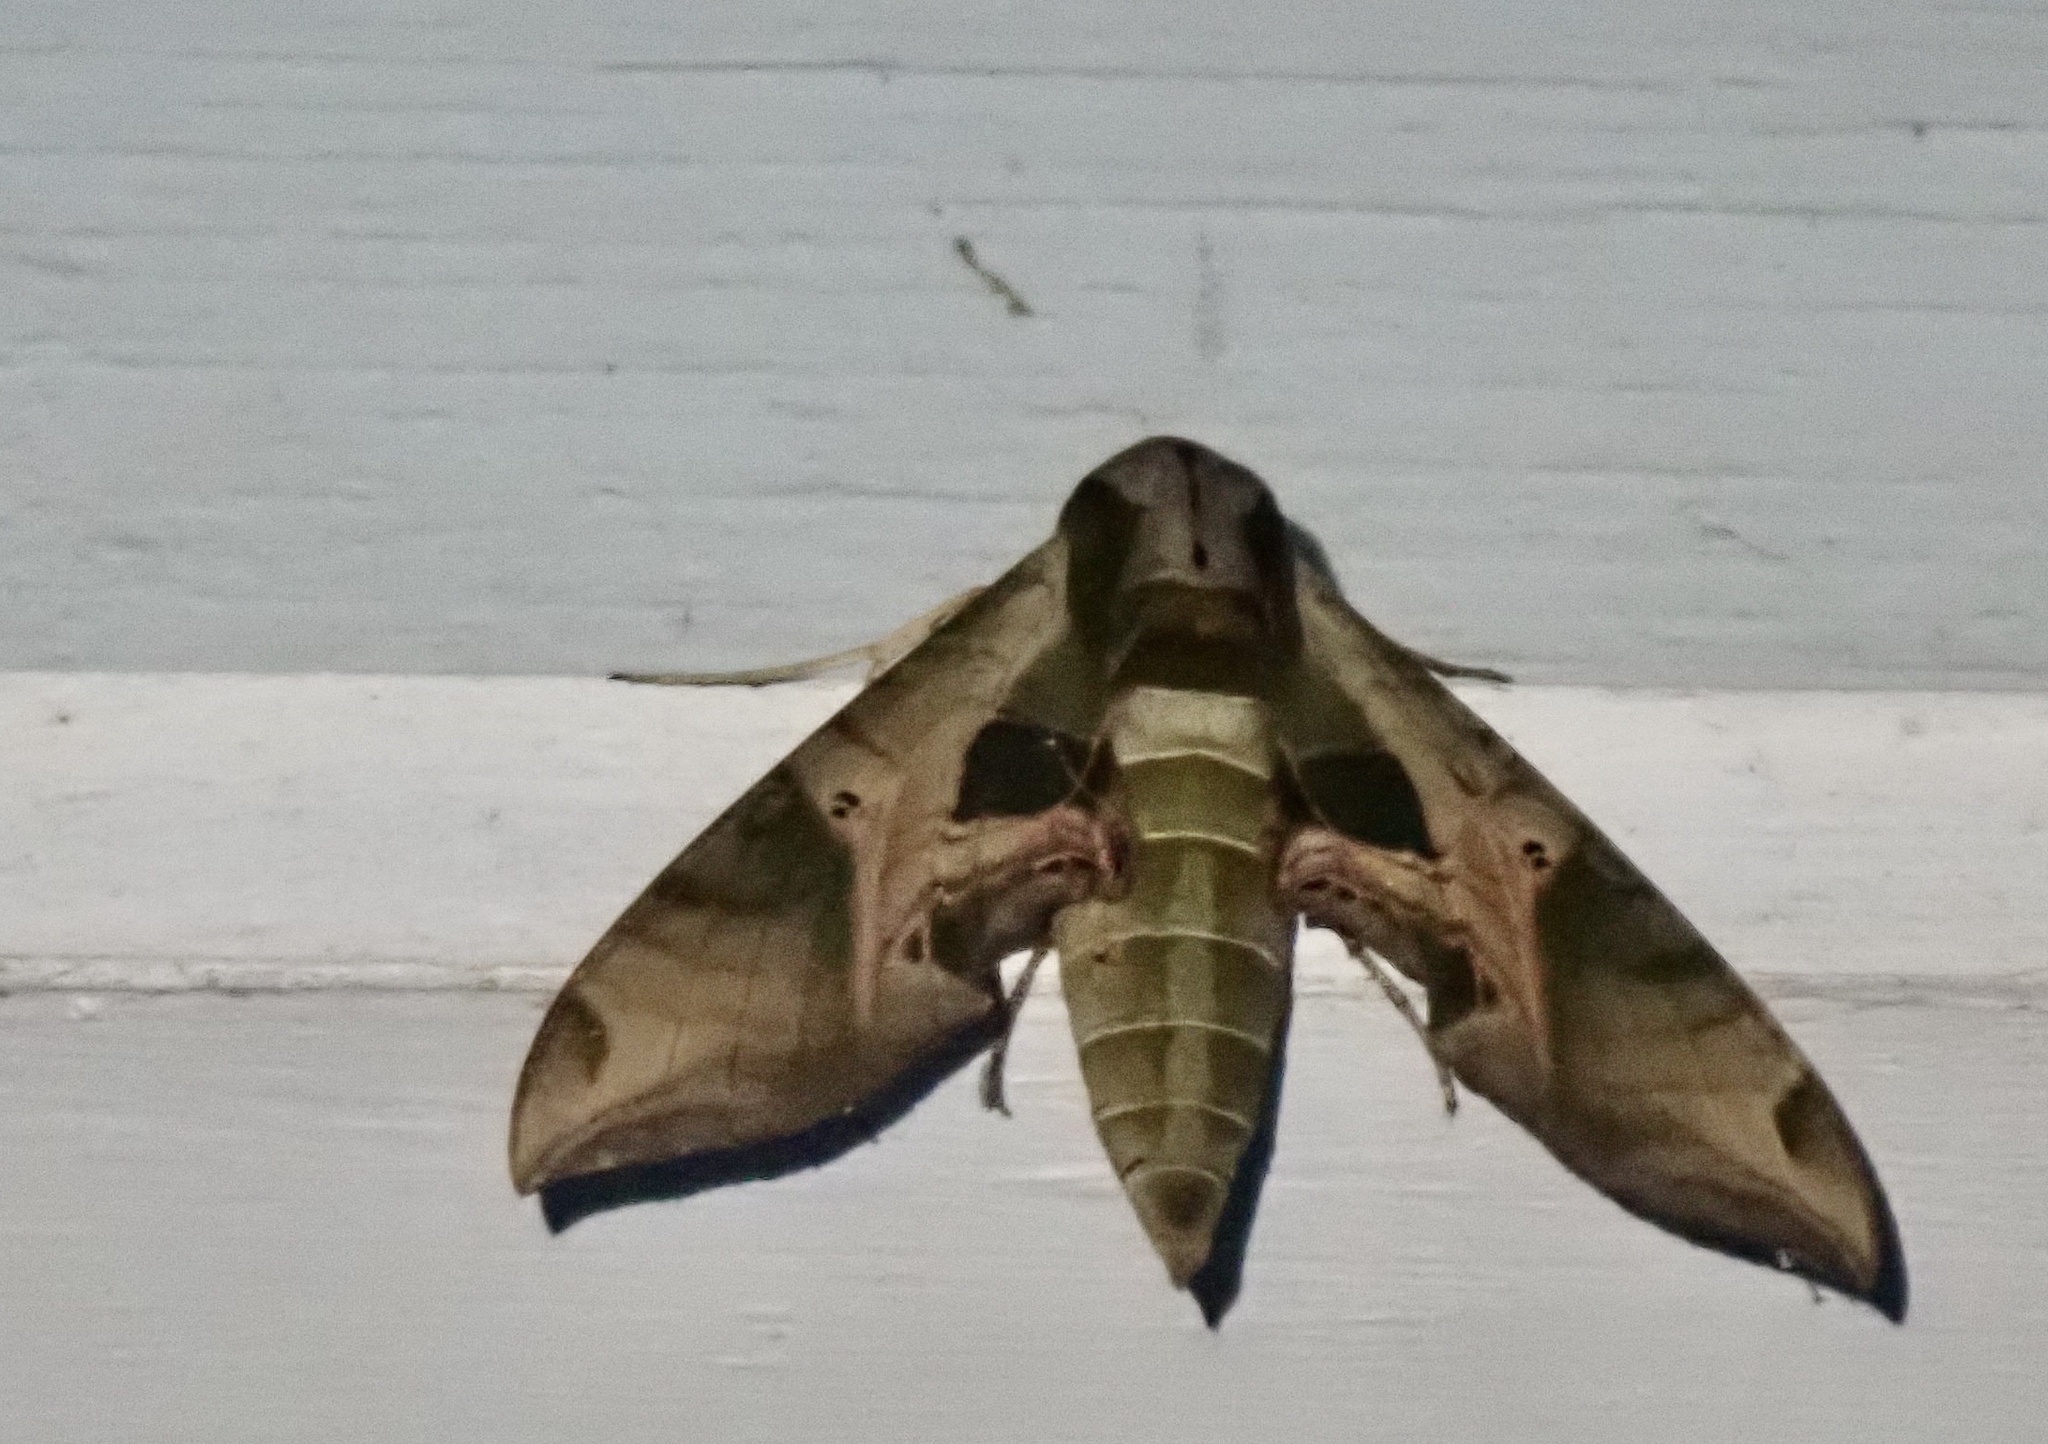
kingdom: Animalia
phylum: Arthropoda
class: Insecta
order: Lepidoptera
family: Sphingidae
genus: Eumorpha
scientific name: Eumorpha pandorus
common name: Pandora sphinx
